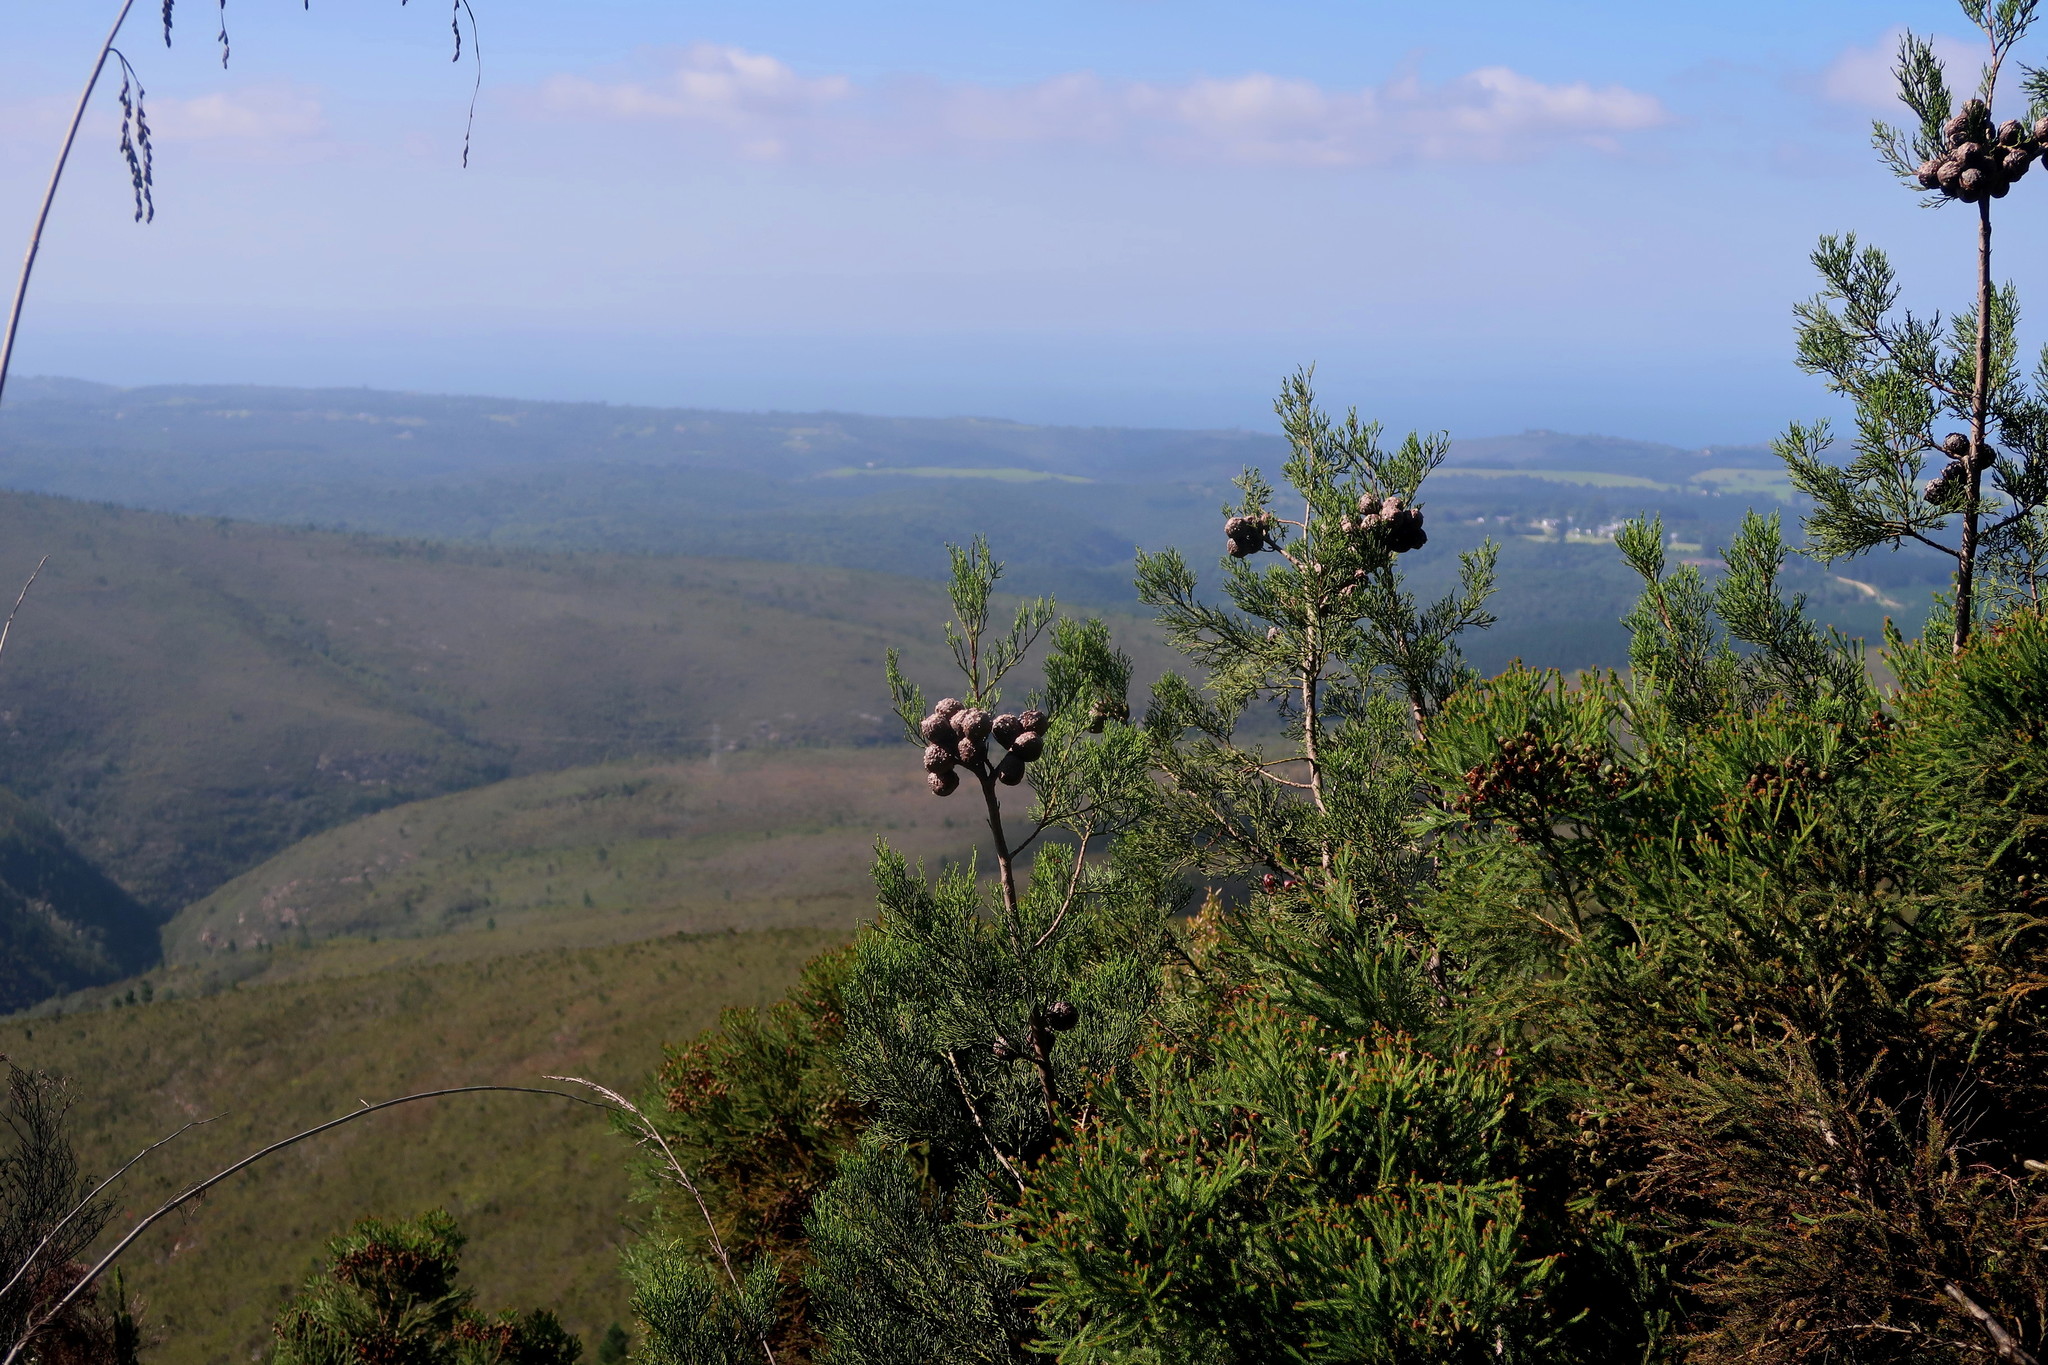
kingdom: Plantae
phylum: Tracheophyta
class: Pinopsida
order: Pinales
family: Cupressaceae
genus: Widdringtonia
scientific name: Widdringtonia nodiflora
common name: Cape cypress
